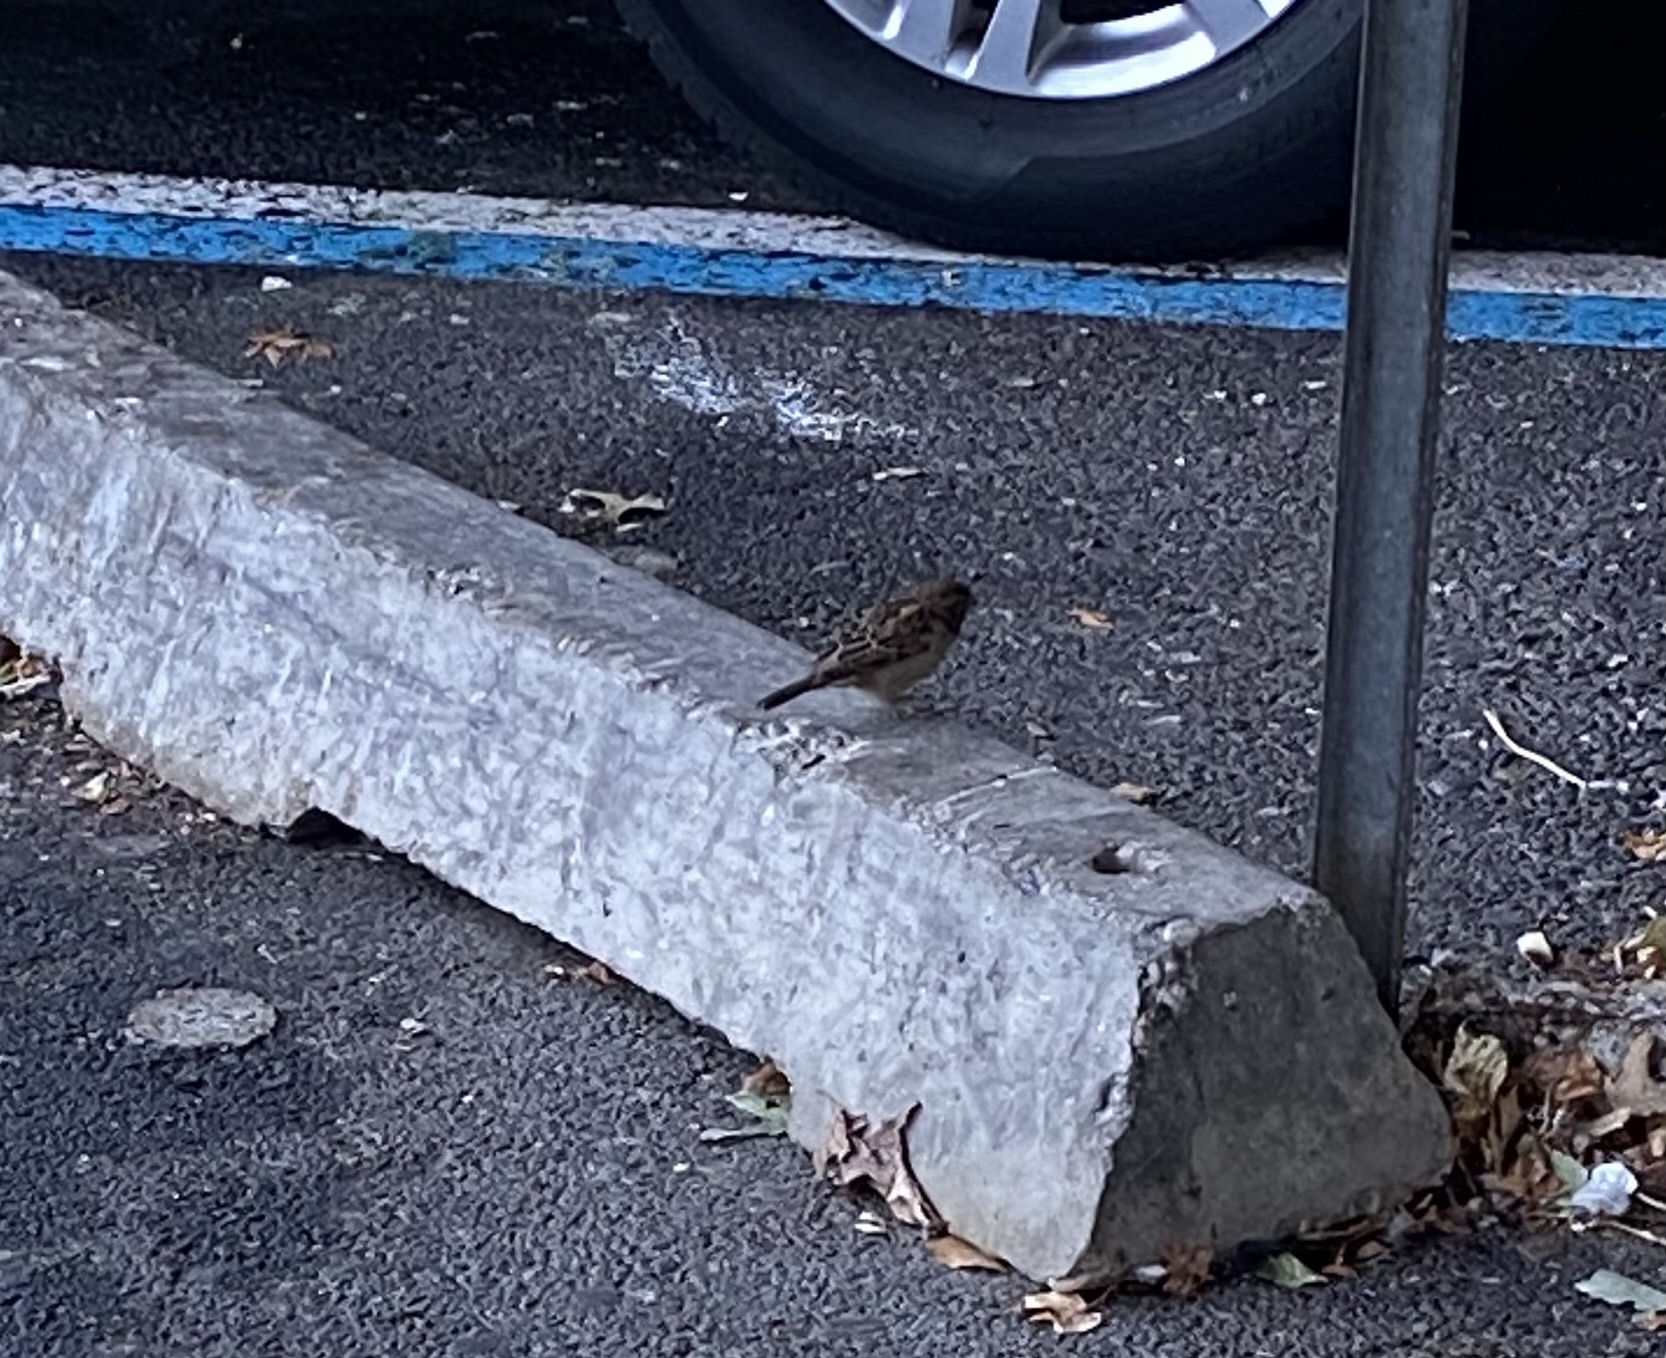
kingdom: Animalia
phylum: Chordata
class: Aves
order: Passeriformes
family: Passeridae
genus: Passer
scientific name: Passer domesticus
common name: House sparrow
